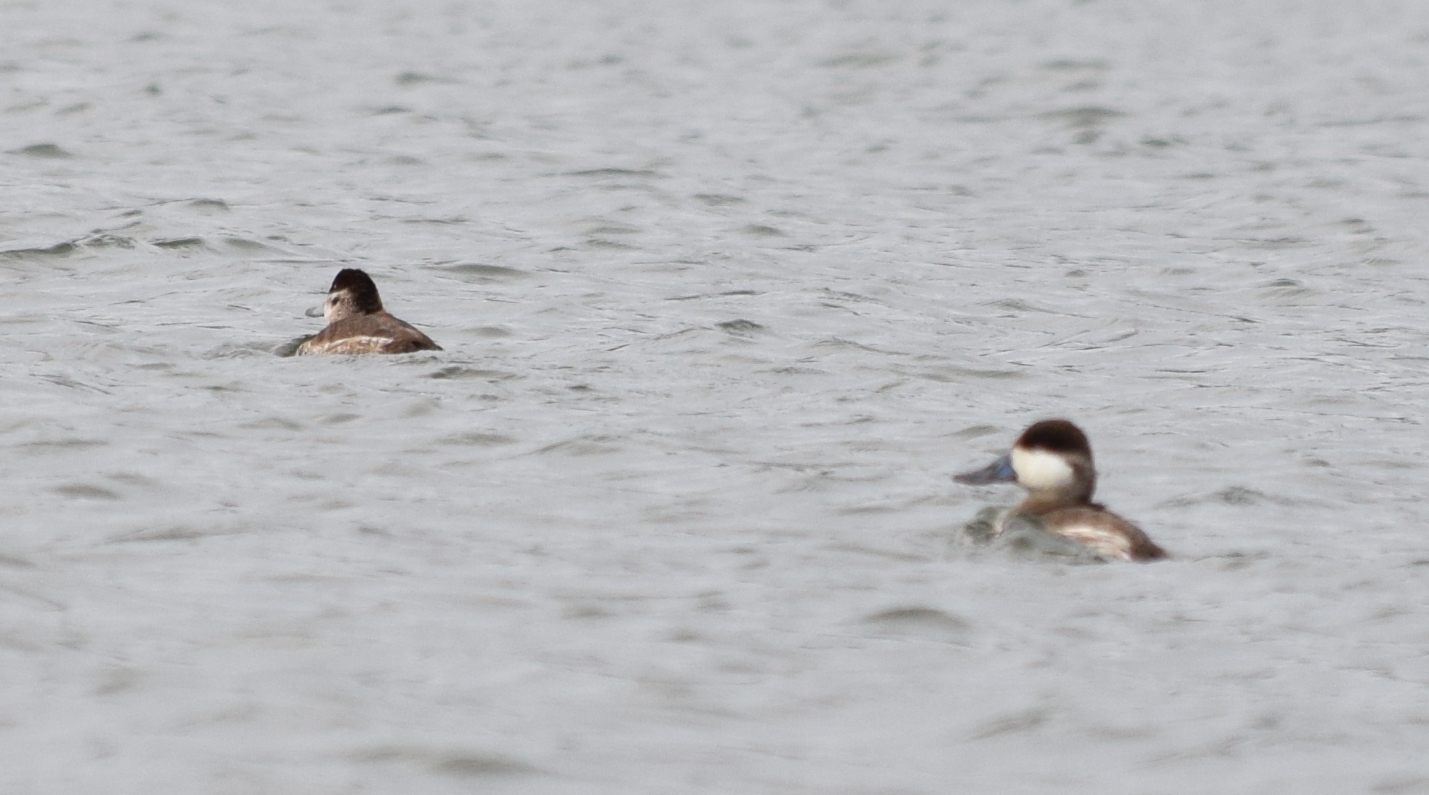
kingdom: Animalia
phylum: Chordata
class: Aves
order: Anseriformes
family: Anatidae
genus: Oxyura
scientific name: Oxyura jamaicensis
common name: Ruddy duck
